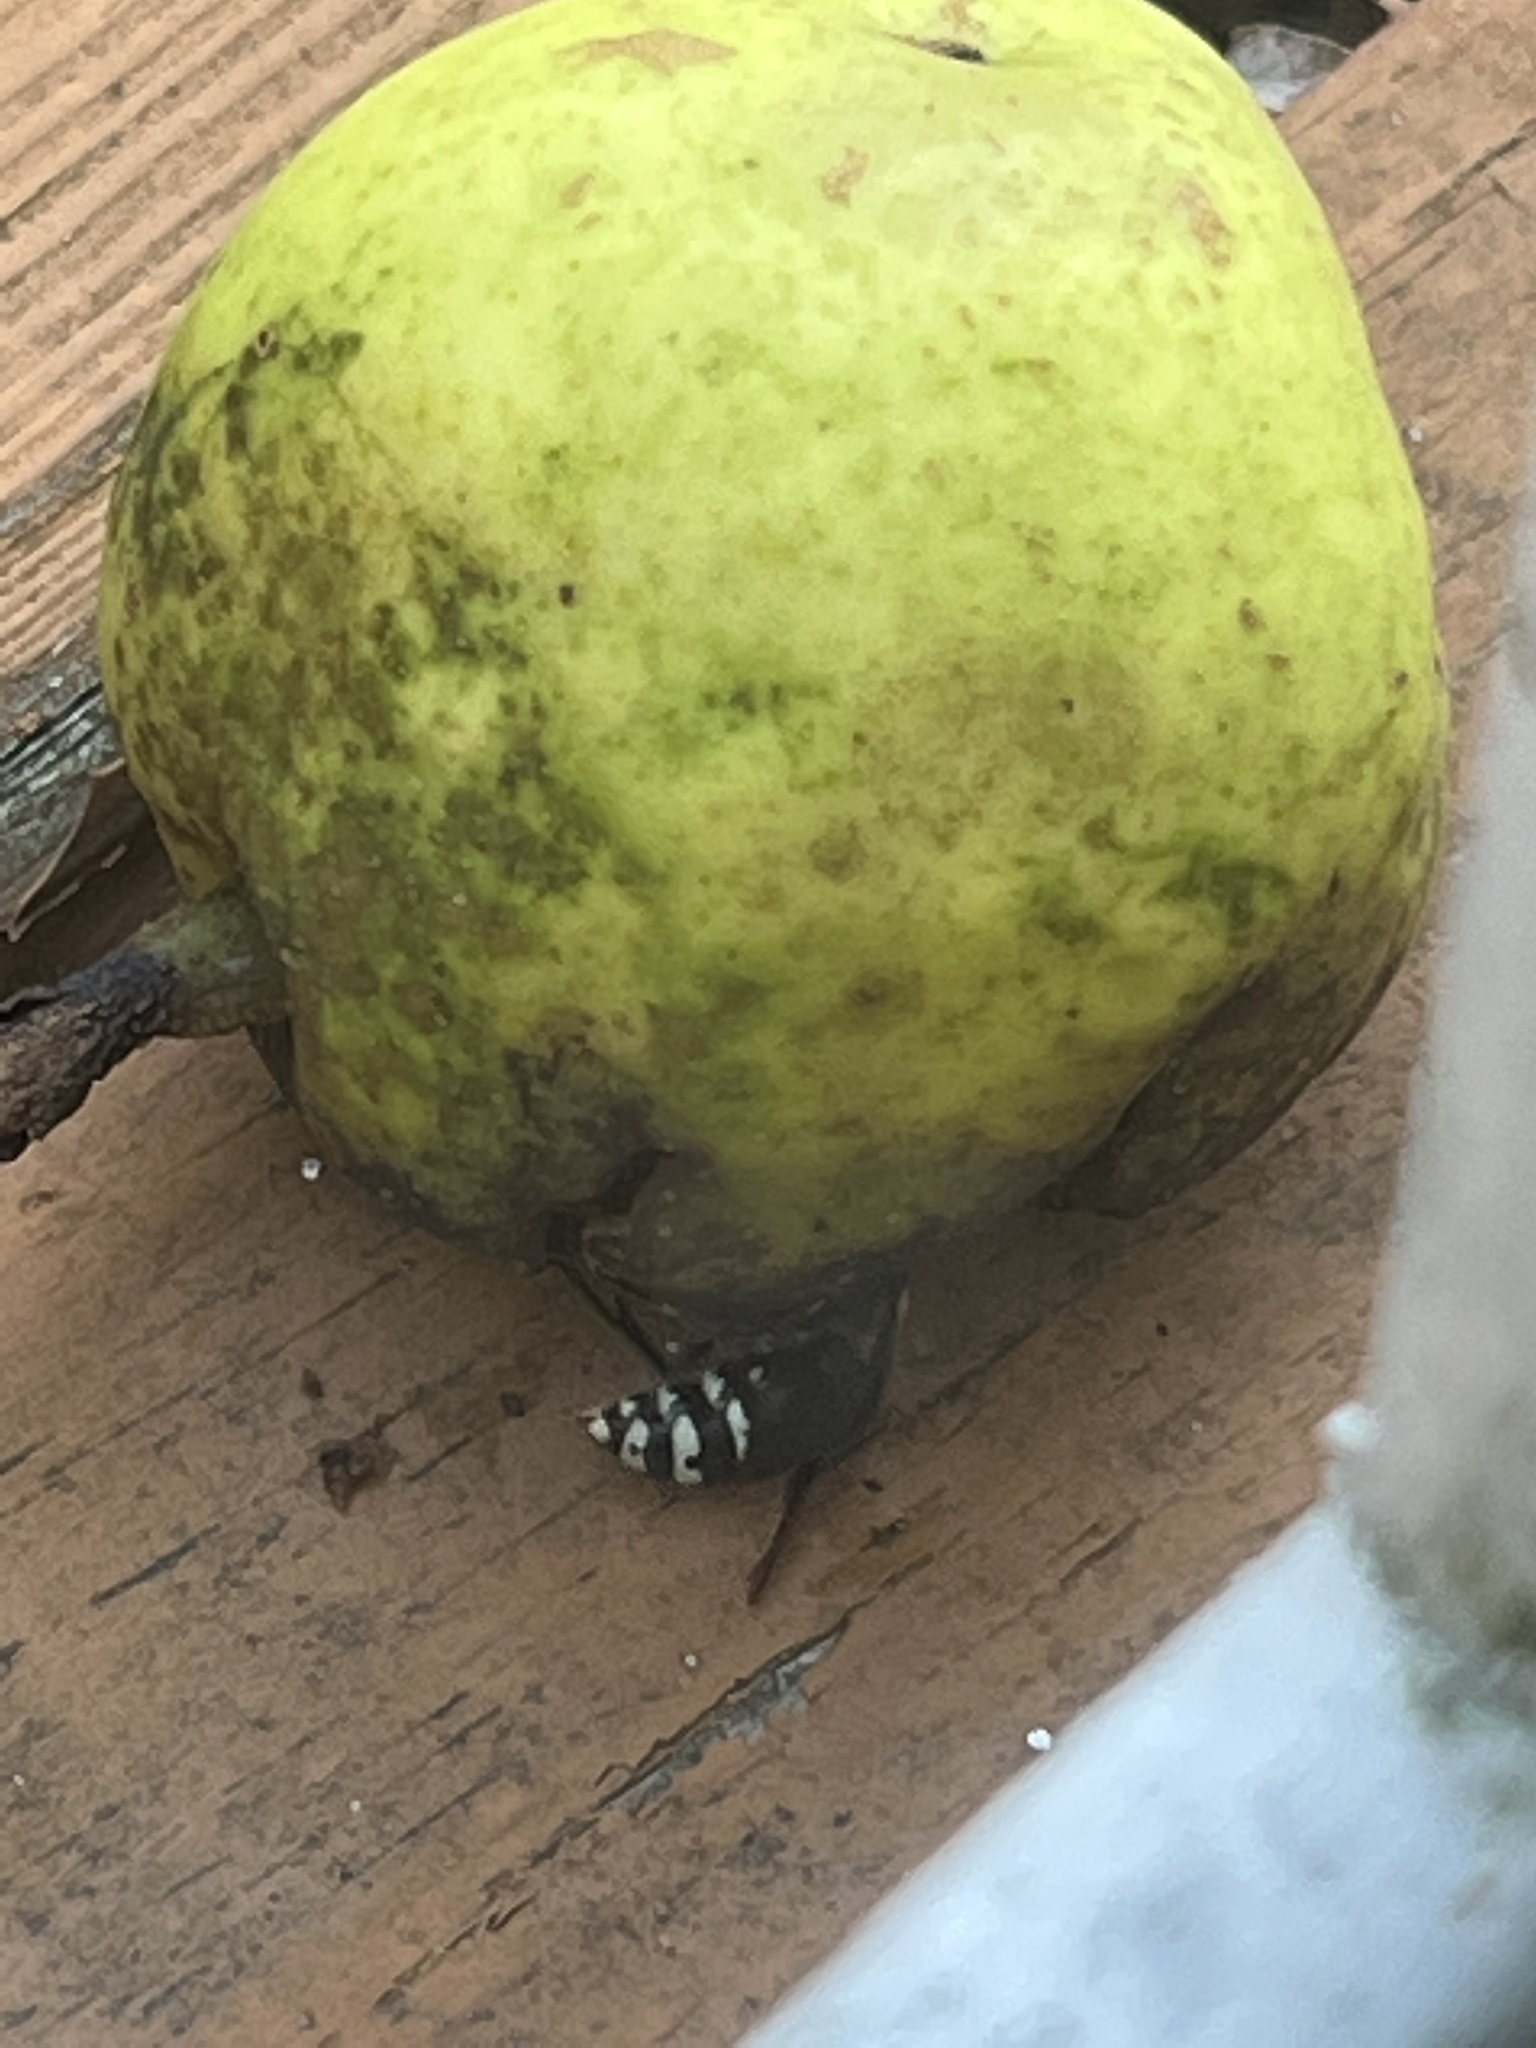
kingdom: Animalia
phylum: Arthropoda
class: Insecta
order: Hymenoptera
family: Vespidae
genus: Dolichovespula
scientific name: Dolichovespula maculata
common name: Bald-faced hornet
